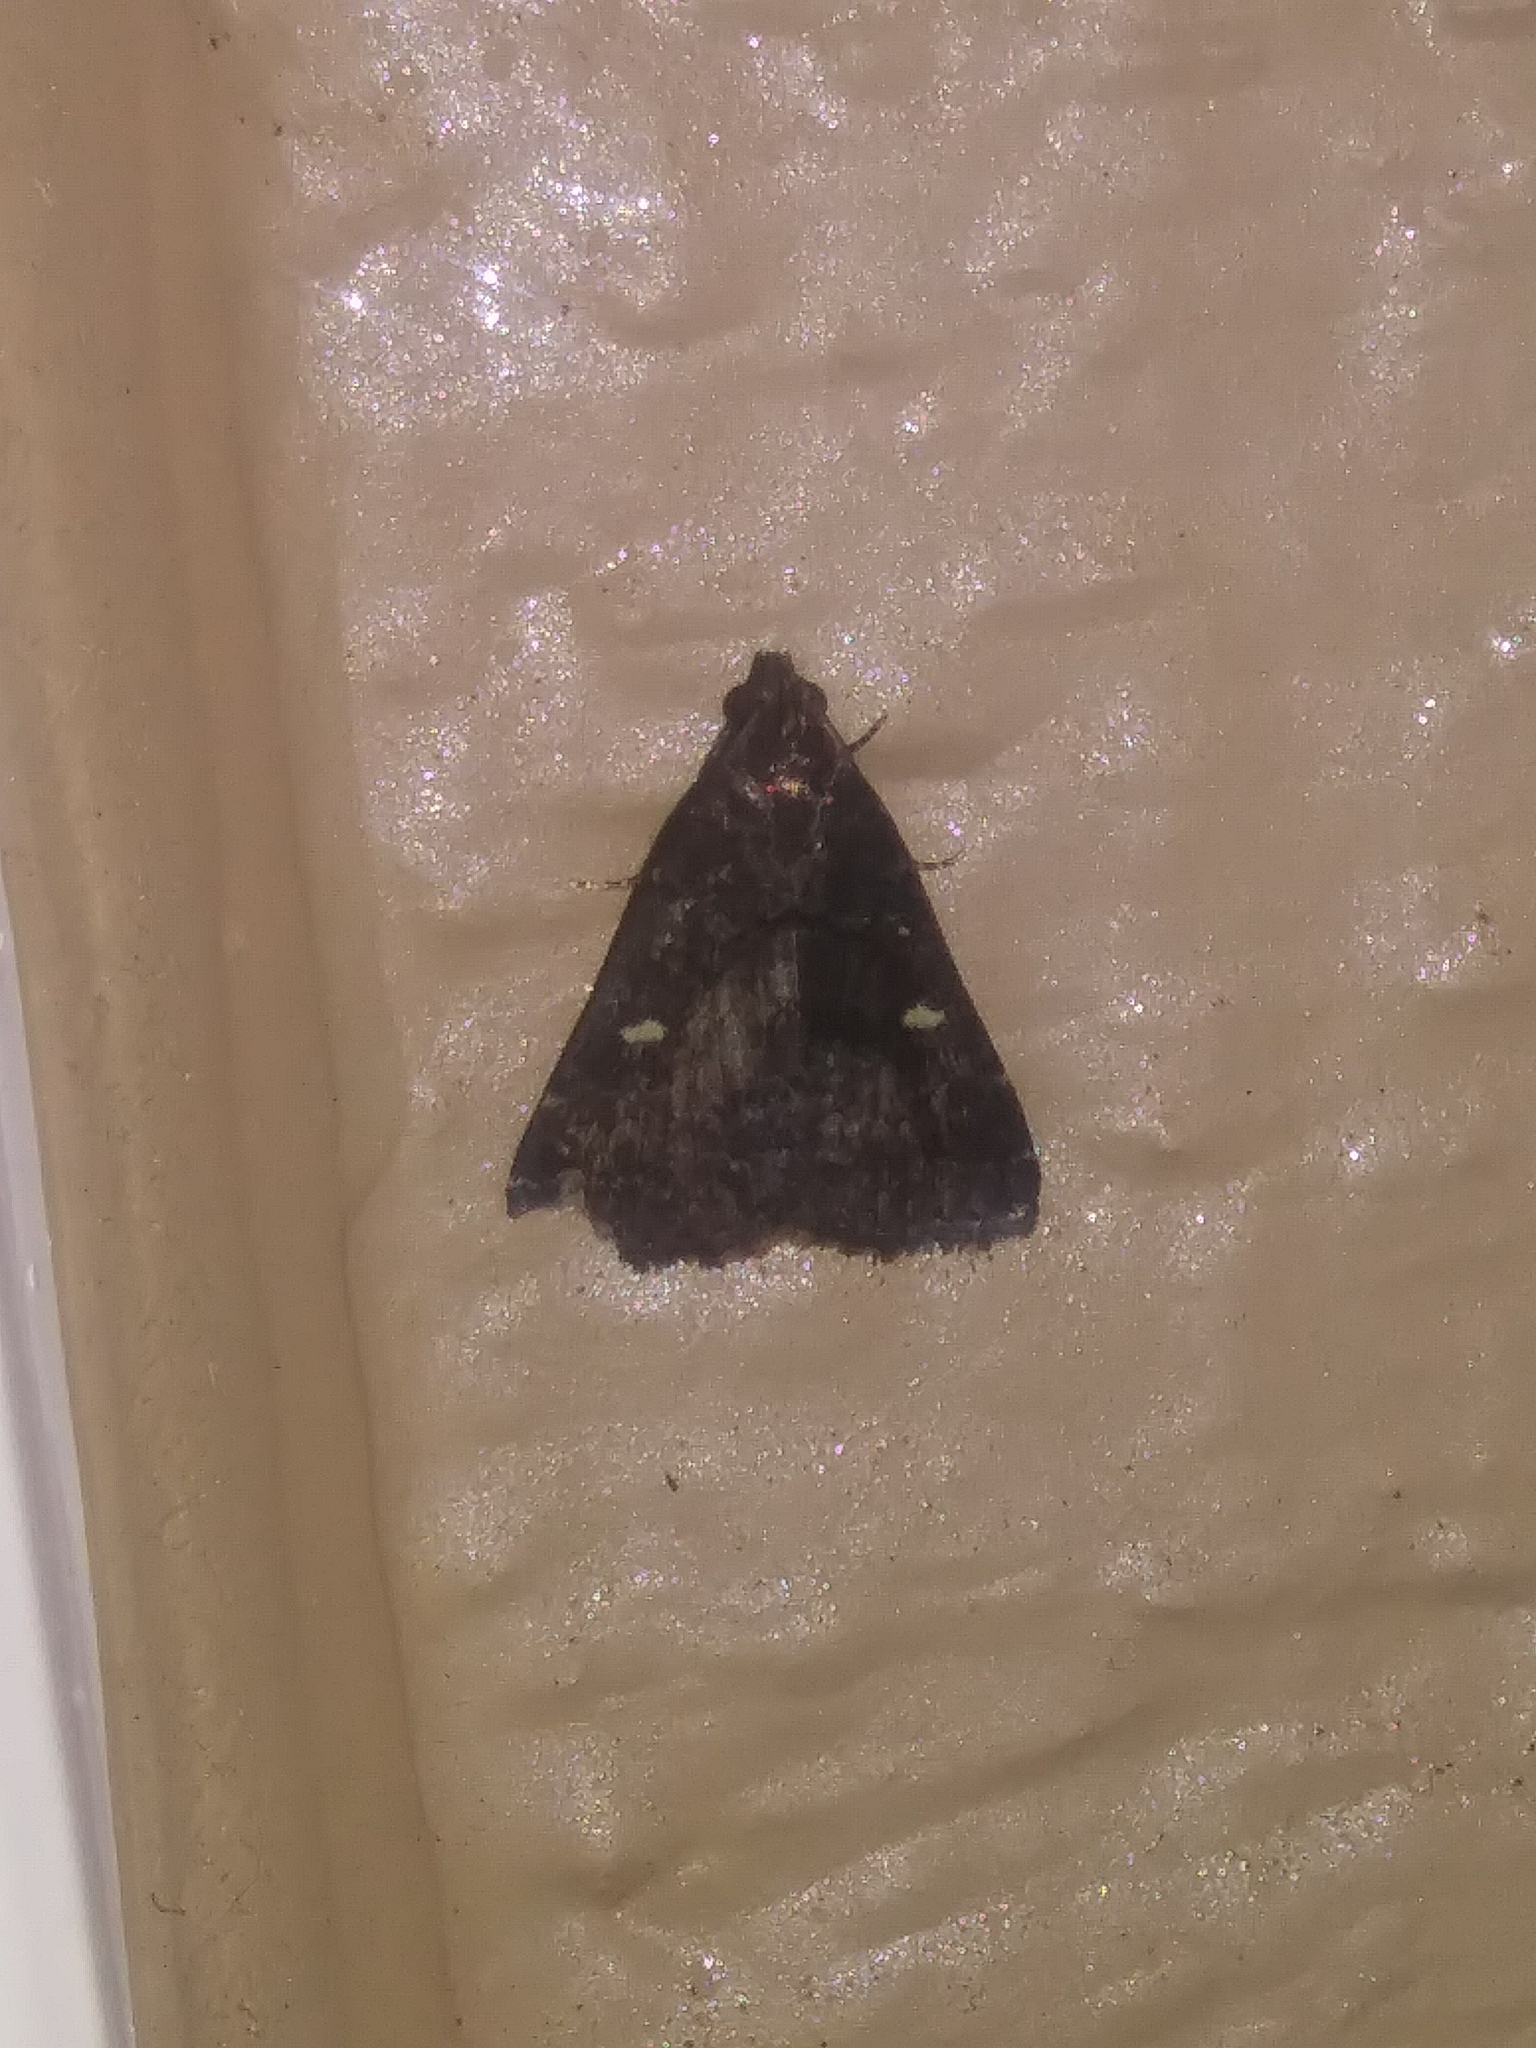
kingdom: Animalia
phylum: Arthropoda
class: Insecta
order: Lepidoptera
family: Erebidae
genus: Tetanolita
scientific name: Tetanolita mynesalis
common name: Smoky tetanolita moth
